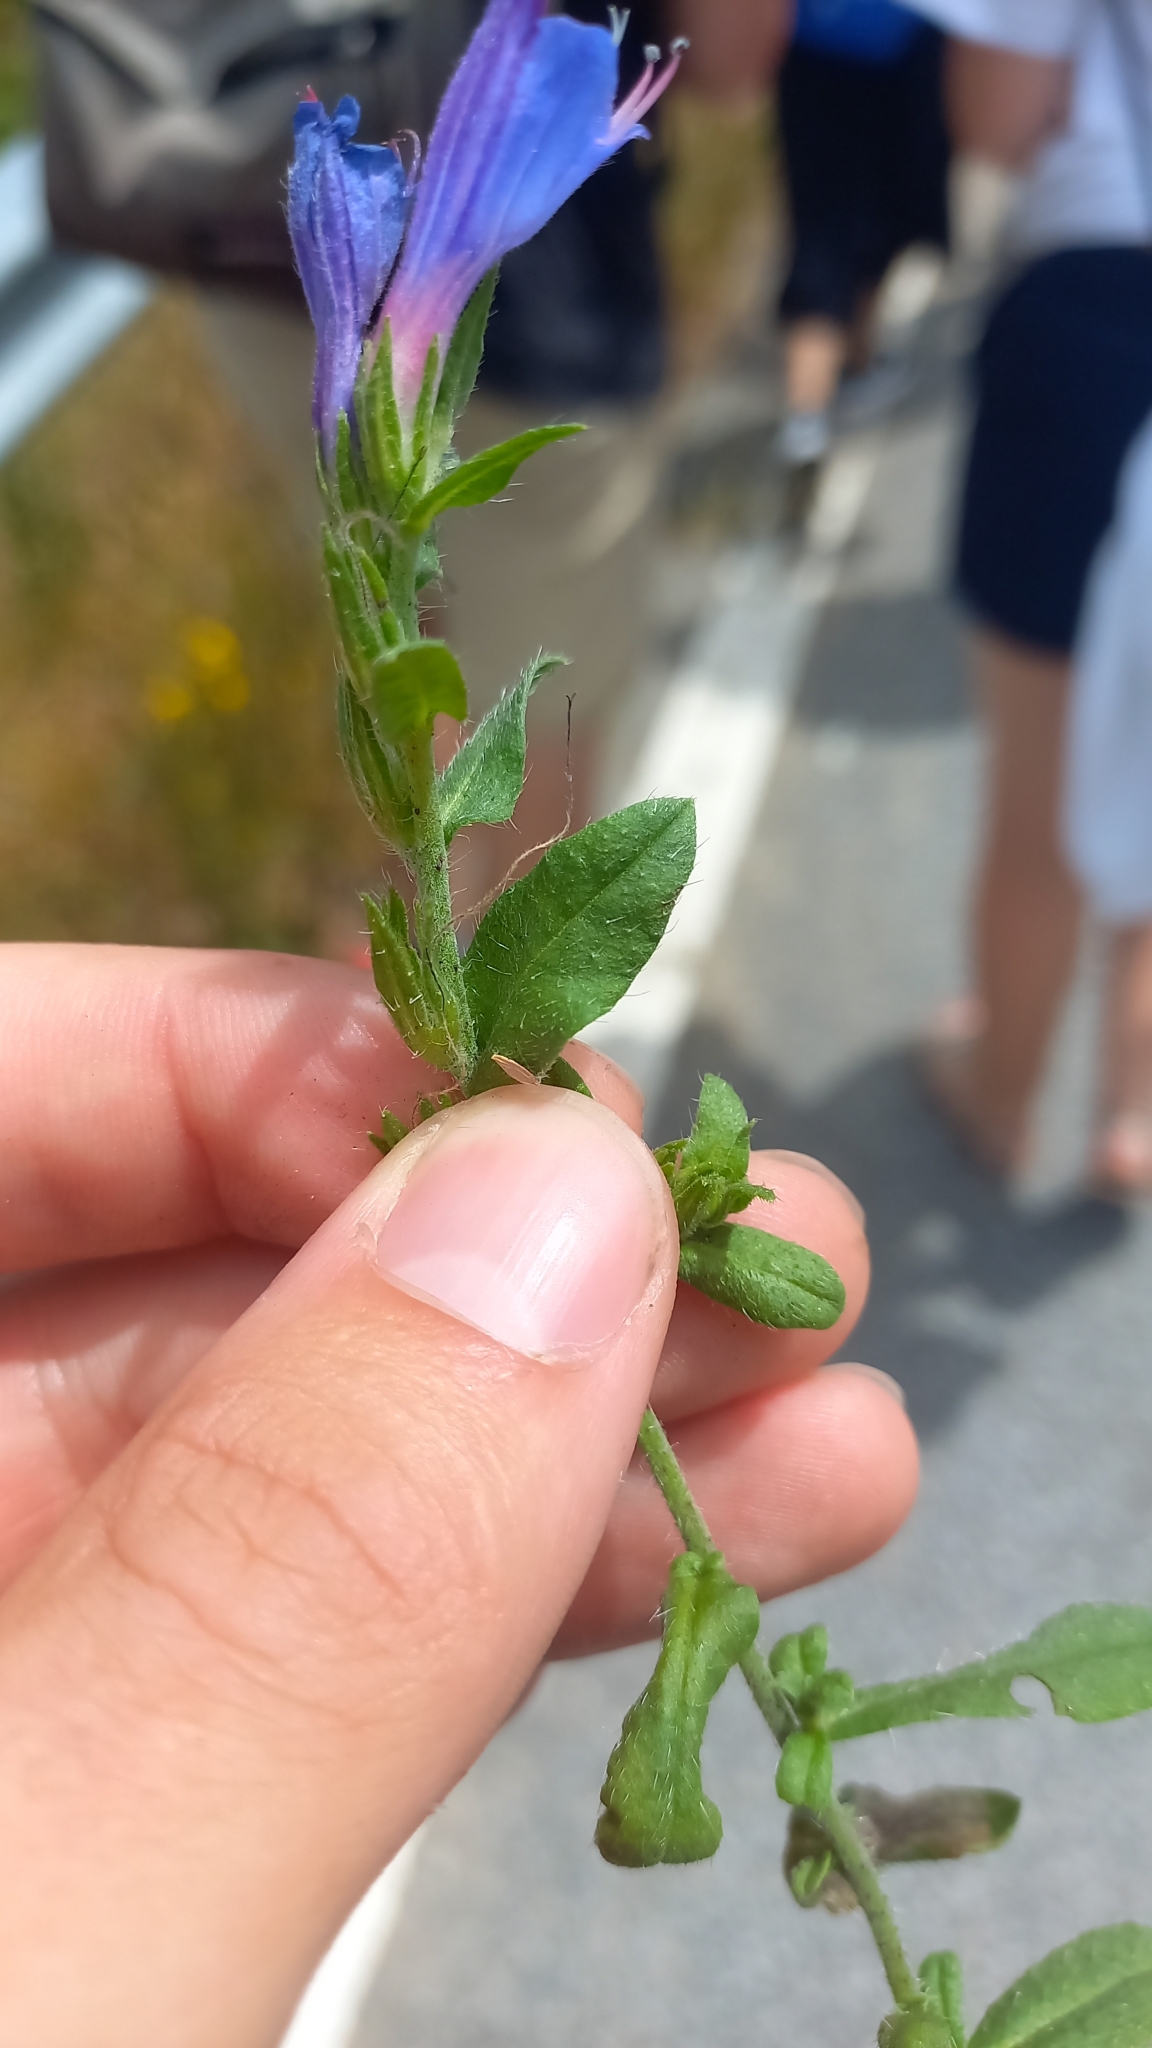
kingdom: Plantae
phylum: Tracheophyta
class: Magnoliopsida
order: Boraginales
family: Boraginaceae
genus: Echium
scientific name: Echium rosulatum
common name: Lax viper's-bugloss
